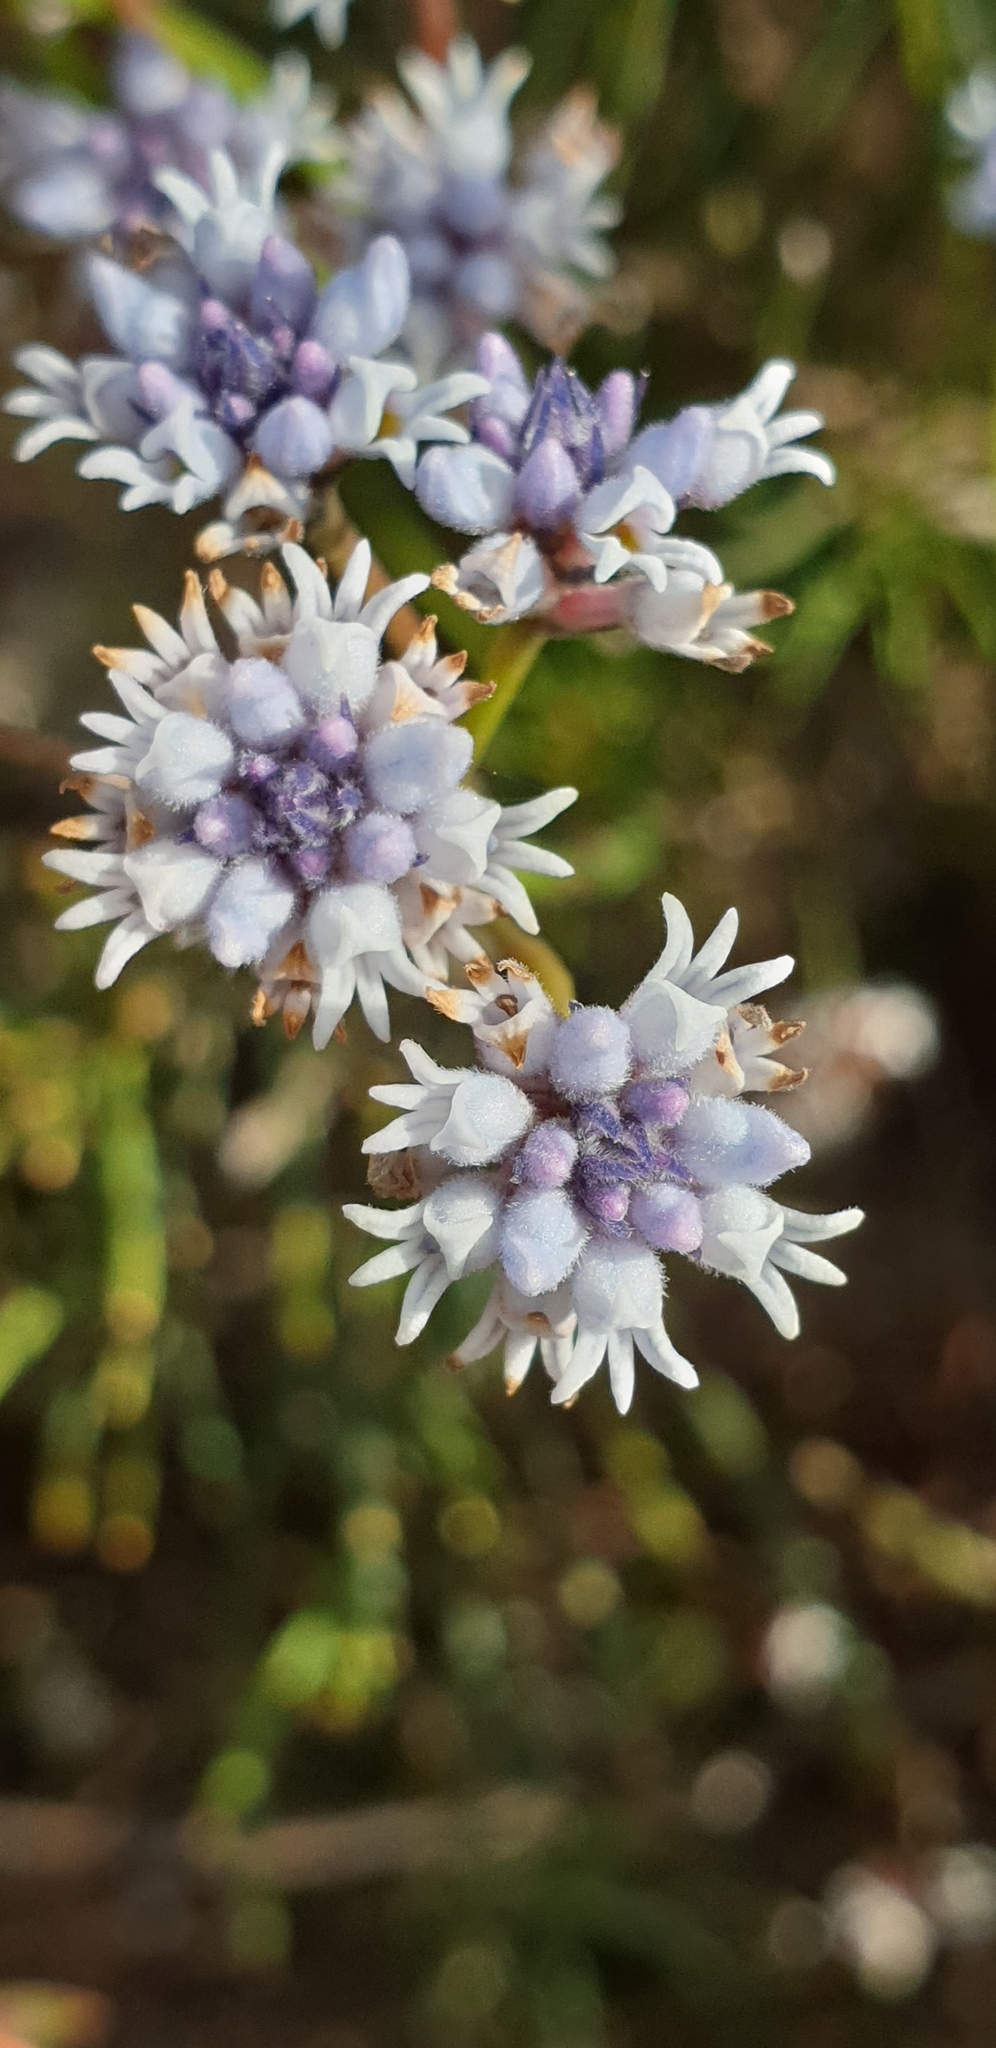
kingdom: Plantae
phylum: Tracheophyta
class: Magnoliopsida
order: Proteales
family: Proteaceae
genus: Conospermum
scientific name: Conospermum patens
